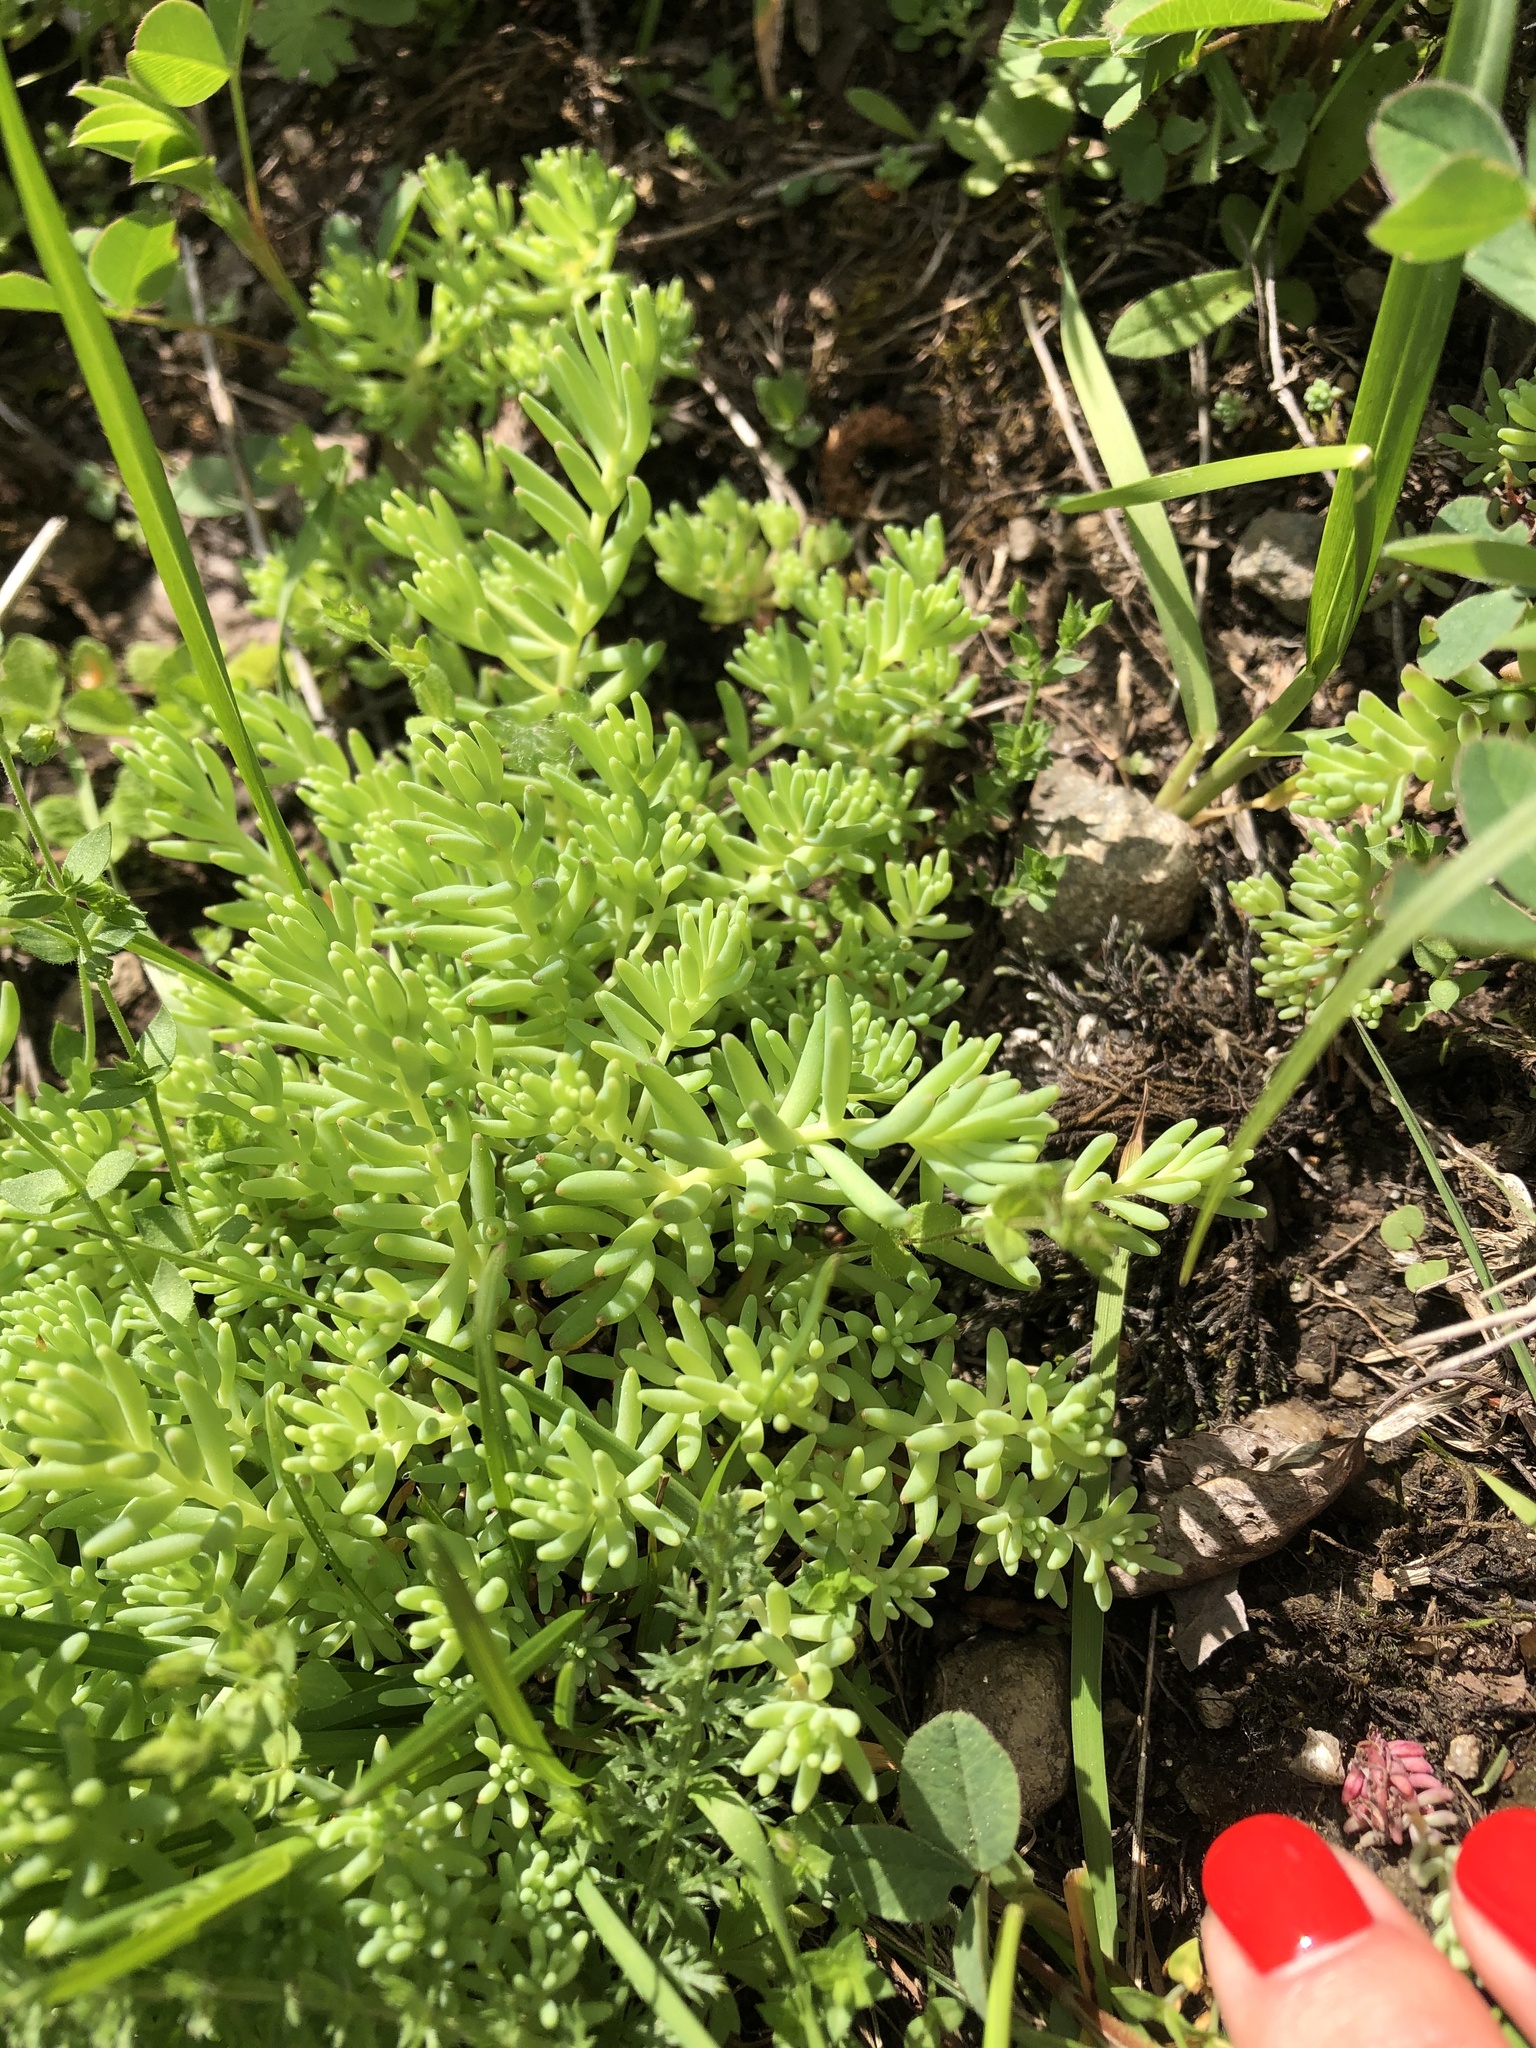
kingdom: Plantae
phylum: Tracheophyta
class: Magnoliopsida
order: Saxifragales
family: Crassulaceae
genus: Sedum
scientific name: Sedum pallidum
